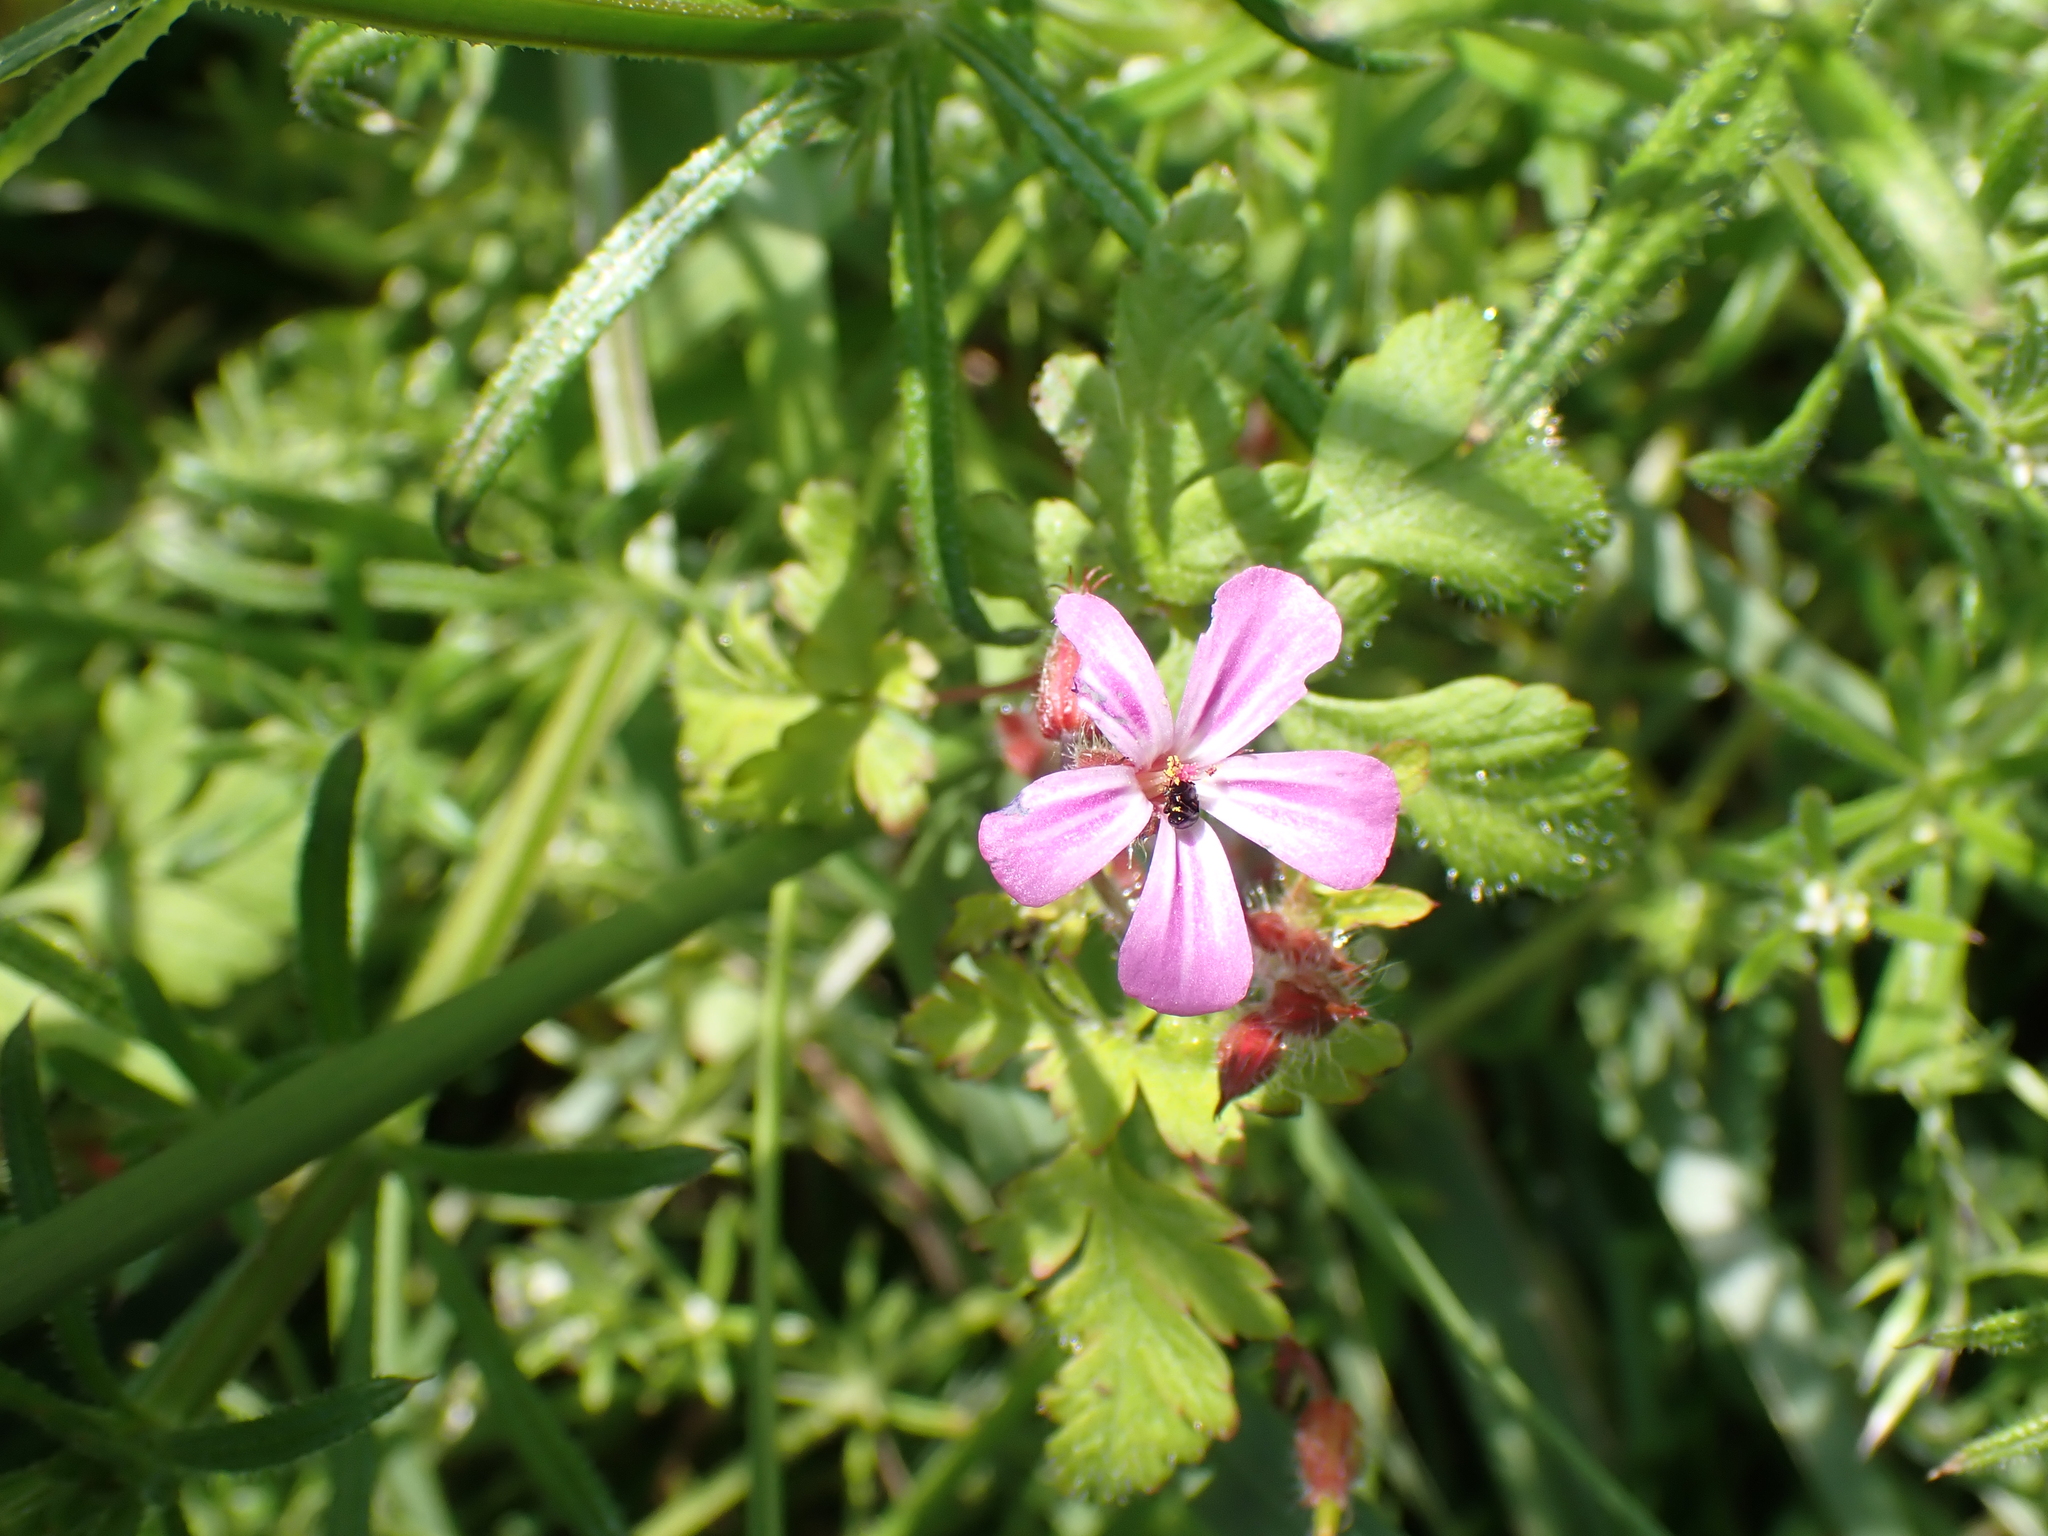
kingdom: Plantae
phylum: Tracheophyta
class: Magnoliopsida
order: Geraniales
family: Geraniaceae
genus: Geranium
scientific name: Geranium robertianum
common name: Herb-robert
